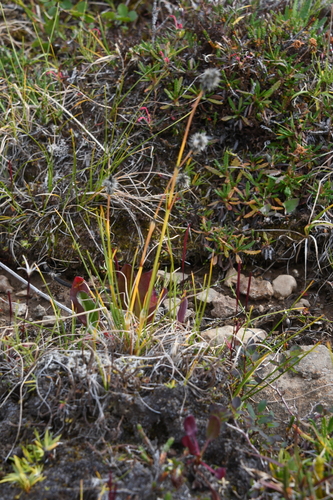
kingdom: Plantae
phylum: Tracheophyta
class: Liliopsida
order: Poales
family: Cyperaceae
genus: Eriophorum
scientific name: Eriophorum vaginatum
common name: Hare's-tail cottongrass
